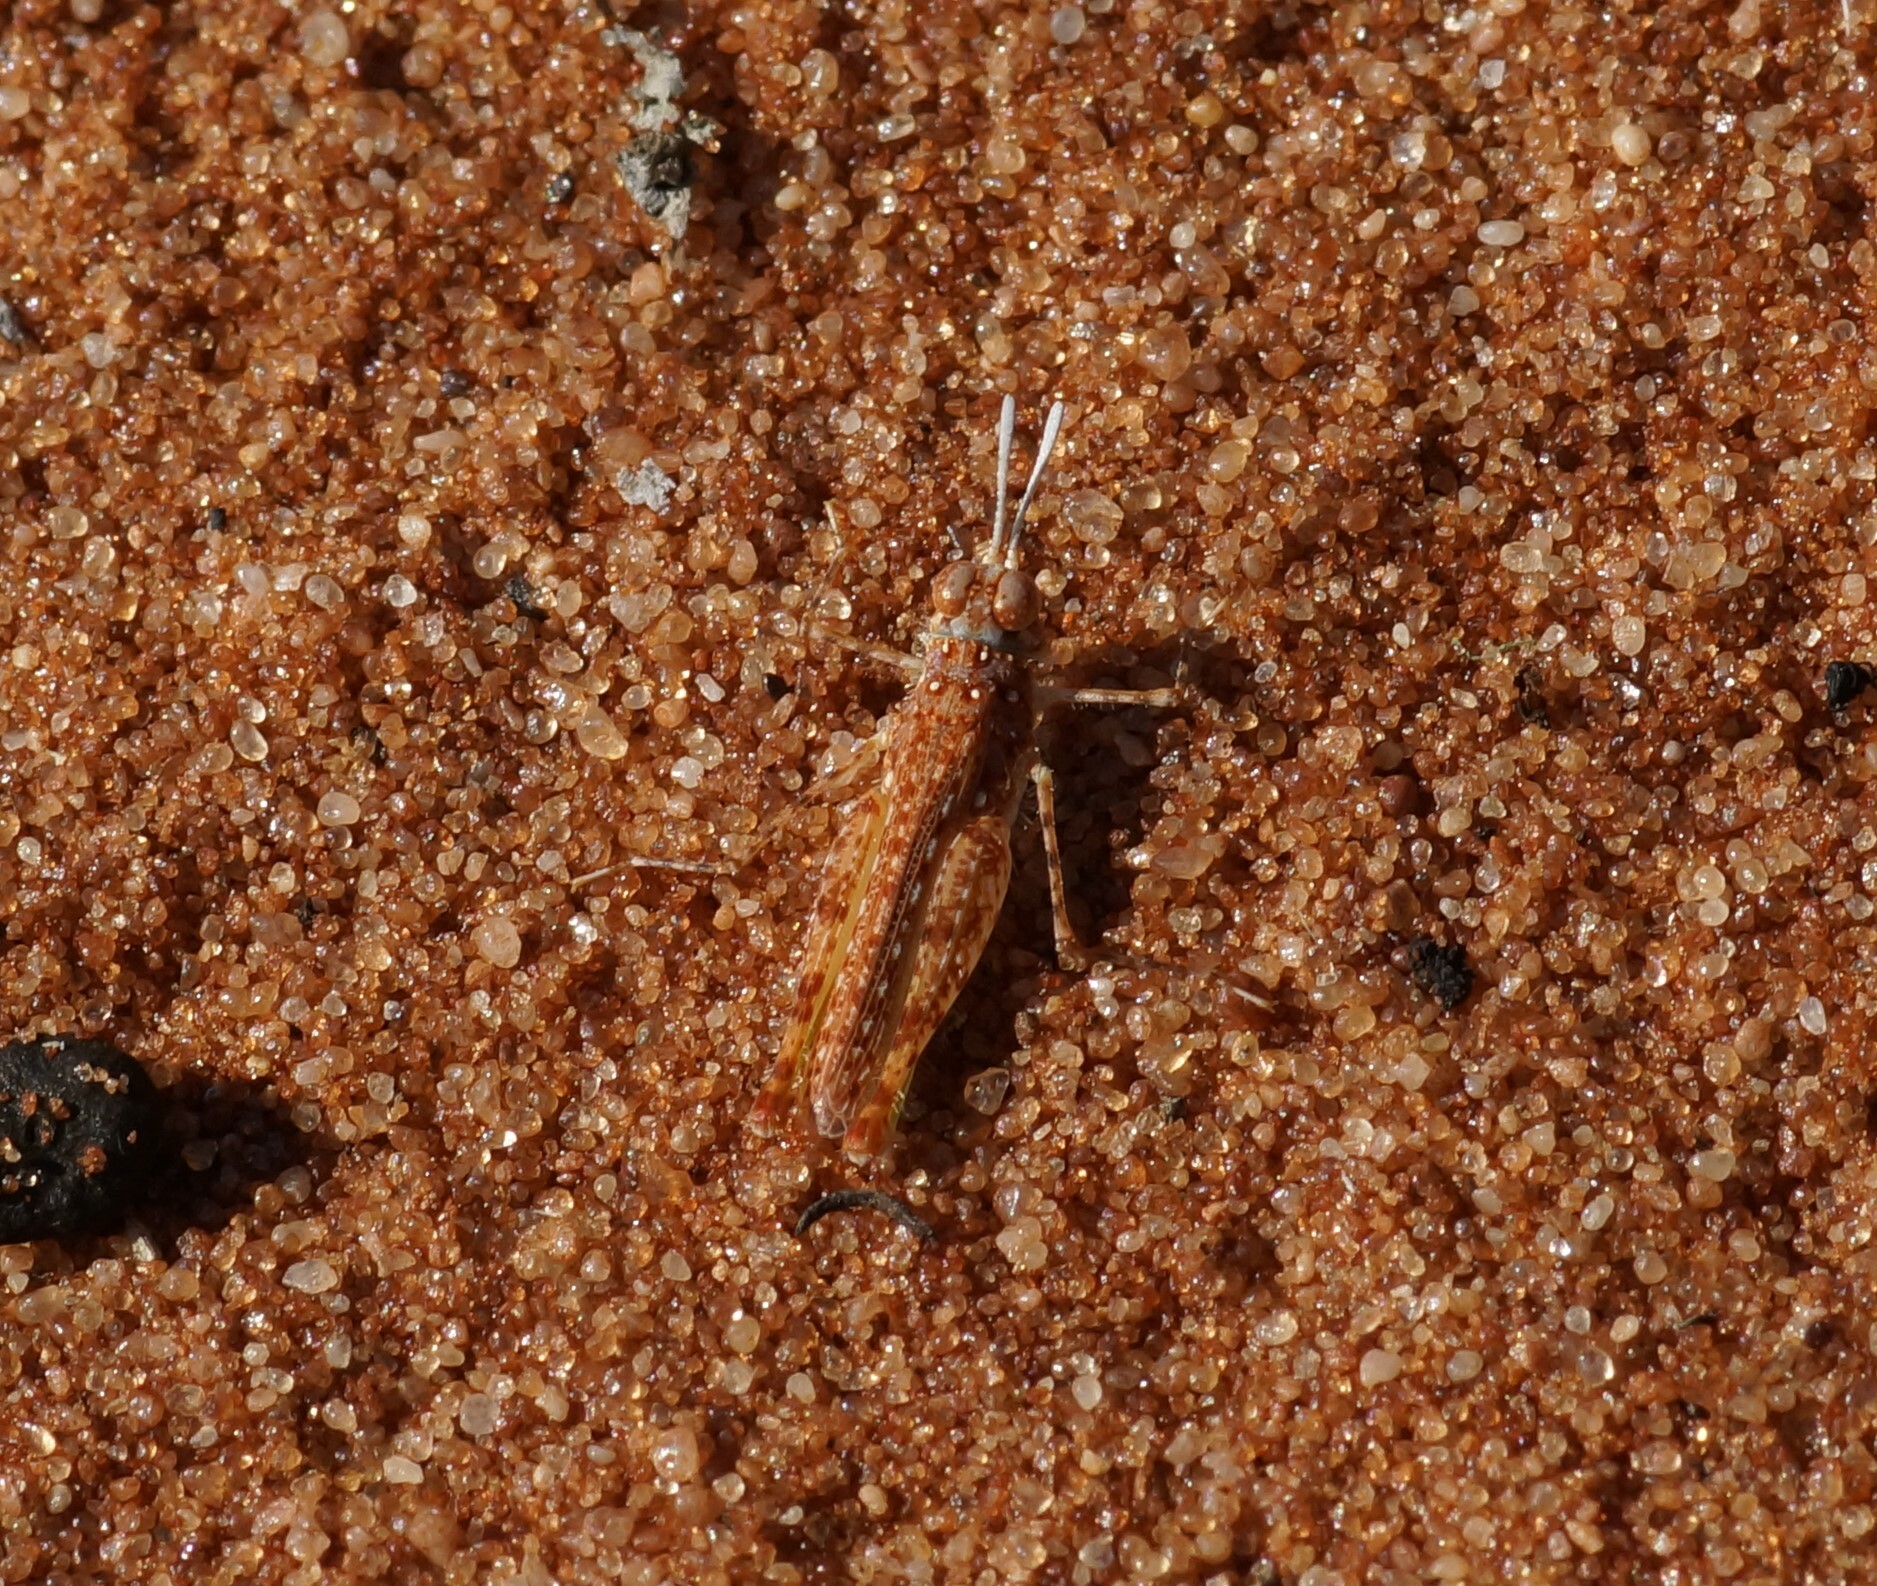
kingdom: Animalia
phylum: Arthropoda
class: Insecta
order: Orthoptera
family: Acrididae
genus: Urnisiella
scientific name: Urnisiella rubropunctata
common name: Long-legged sandhopper
